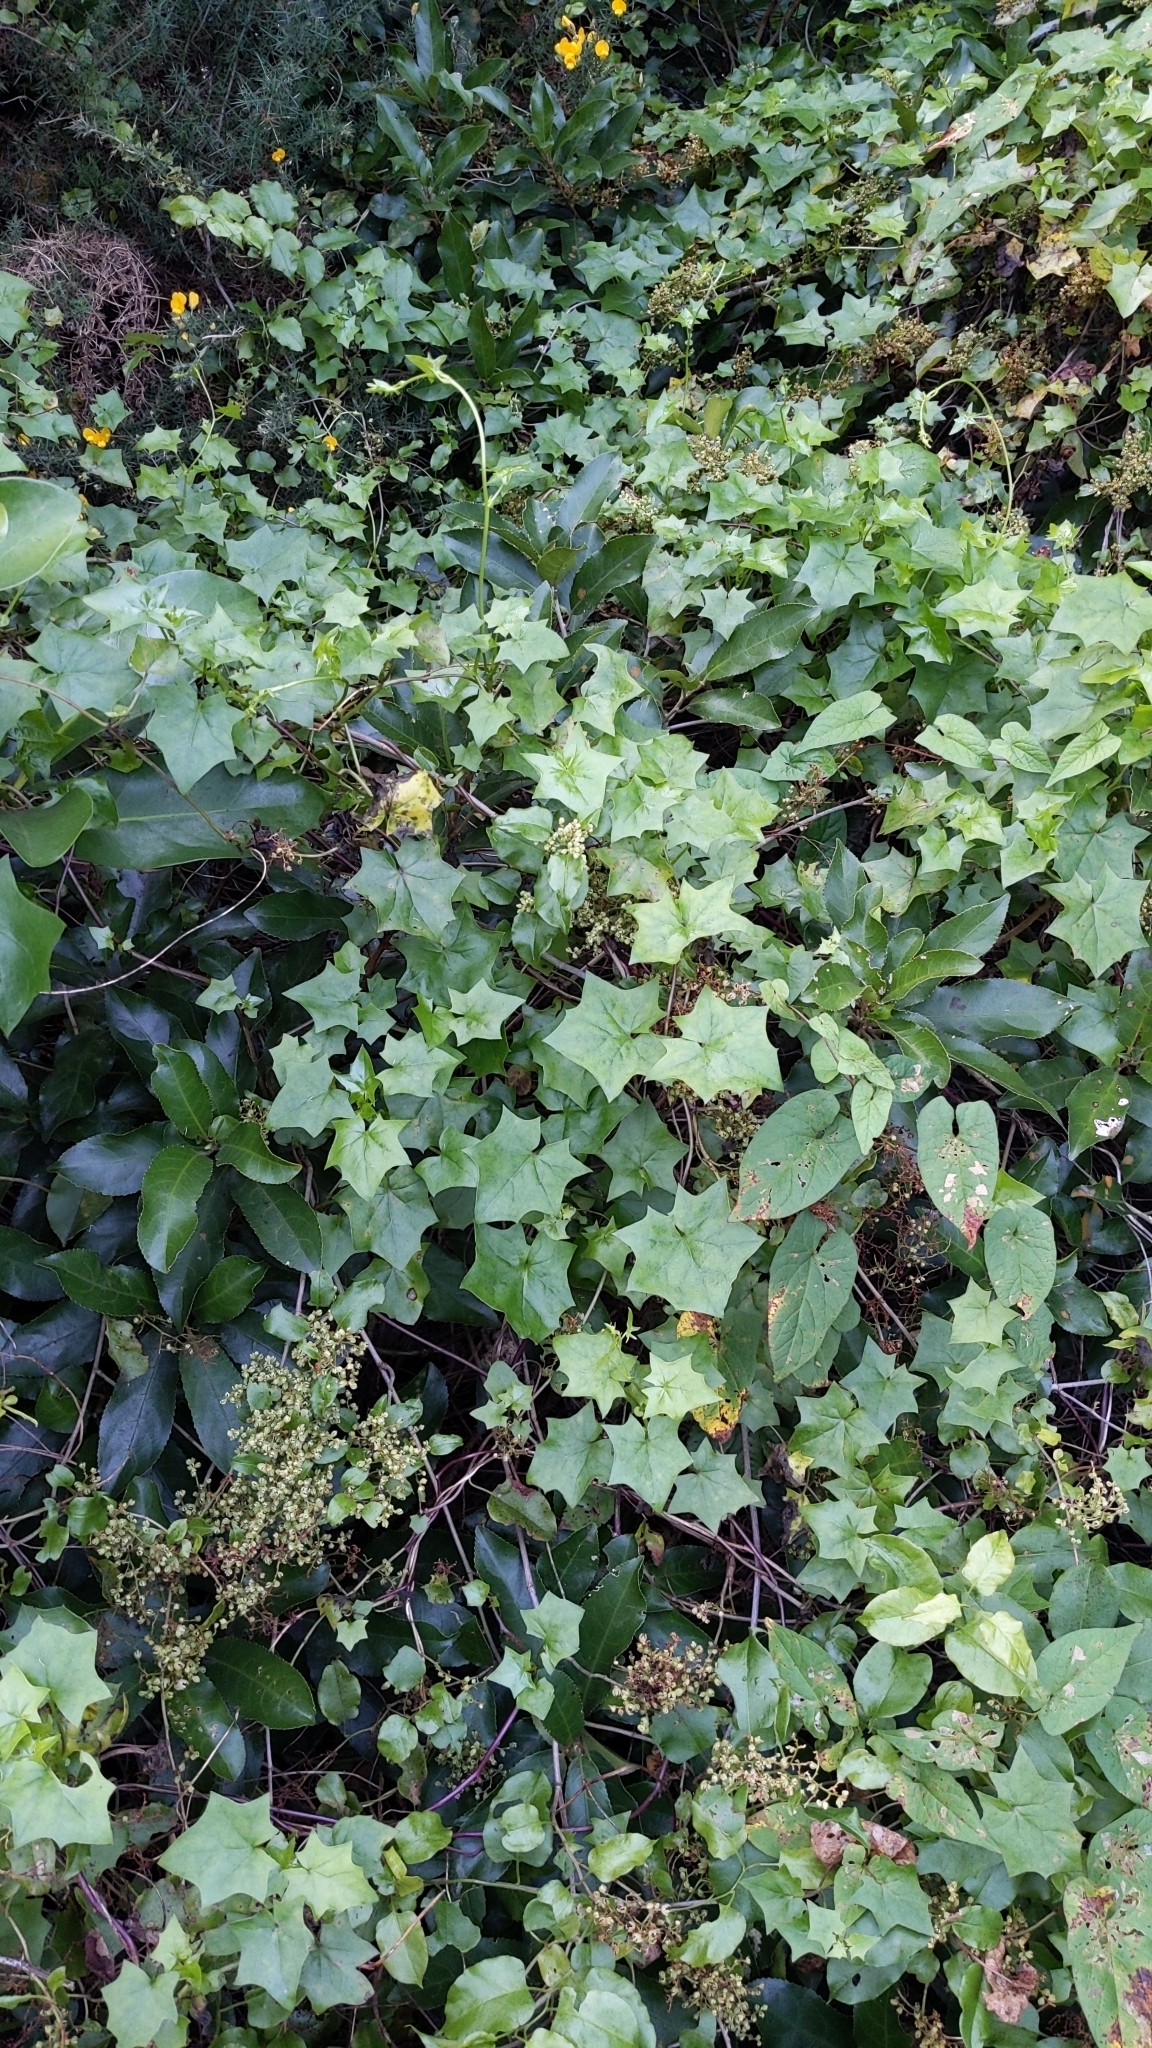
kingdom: Plantae
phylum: Tracheophyta
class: Magnoliopsida
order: Asterales
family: Asteraceae
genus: Delairea
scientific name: Delairea odorata
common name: Cape-ivy
